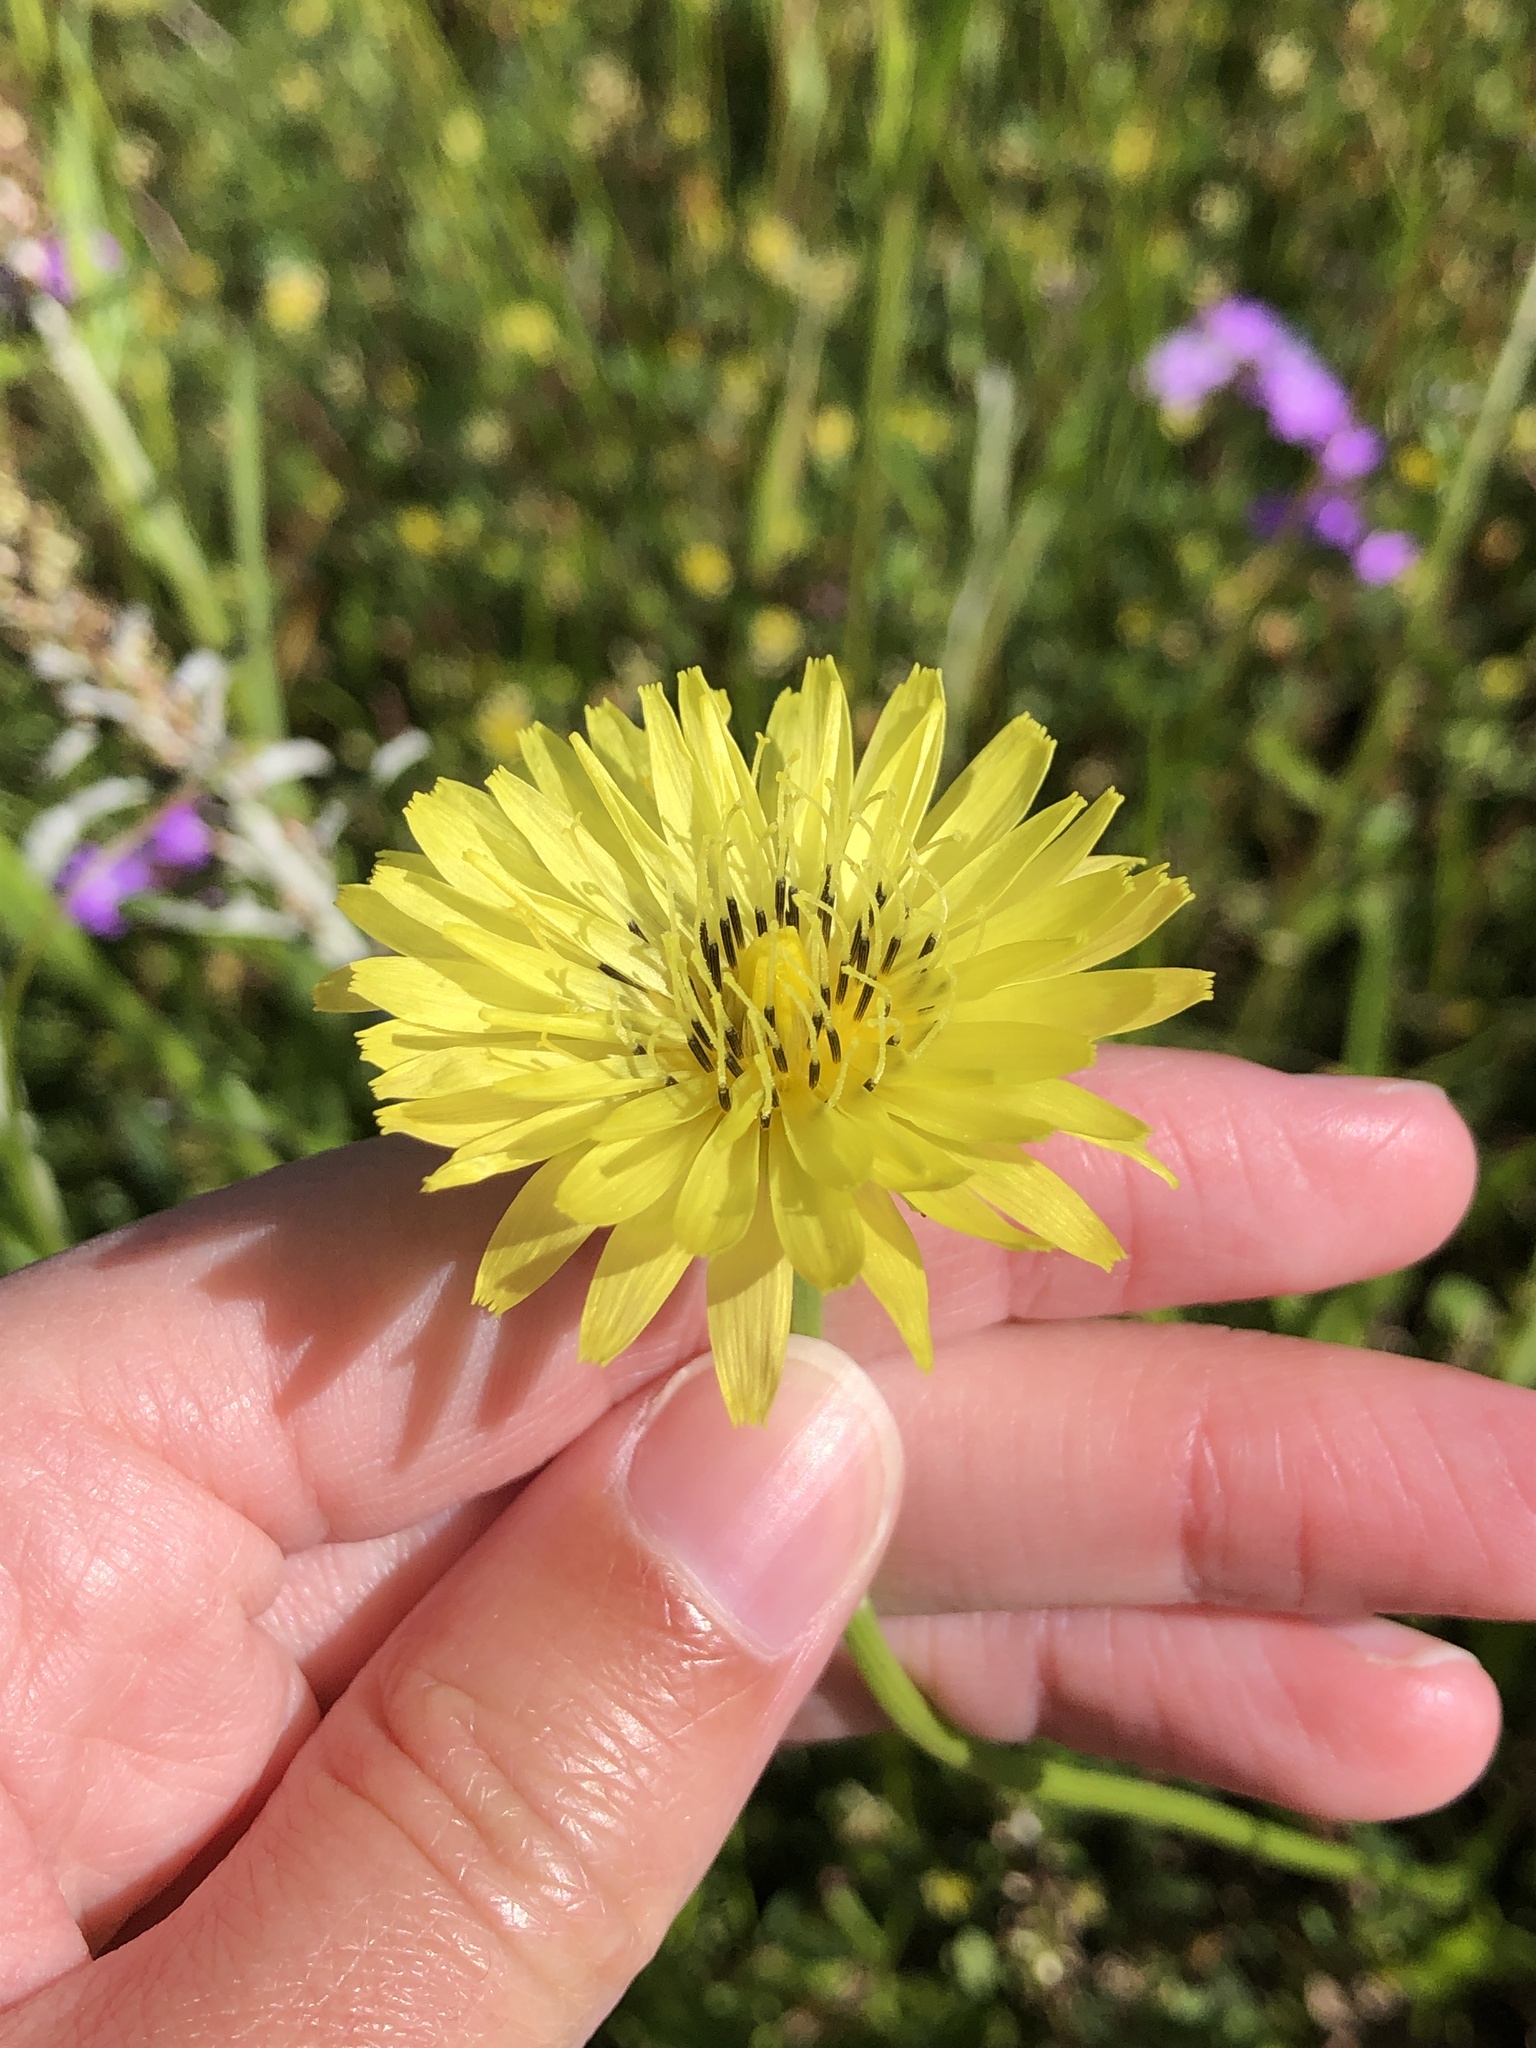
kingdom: Plantae
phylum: Tracheophyta
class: Magnoliopsida
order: Asterales
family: Asteraceae
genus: Pyrrhopappus
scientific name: Pyrrhopappus carolinianus
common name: Carolina desert-chicory
